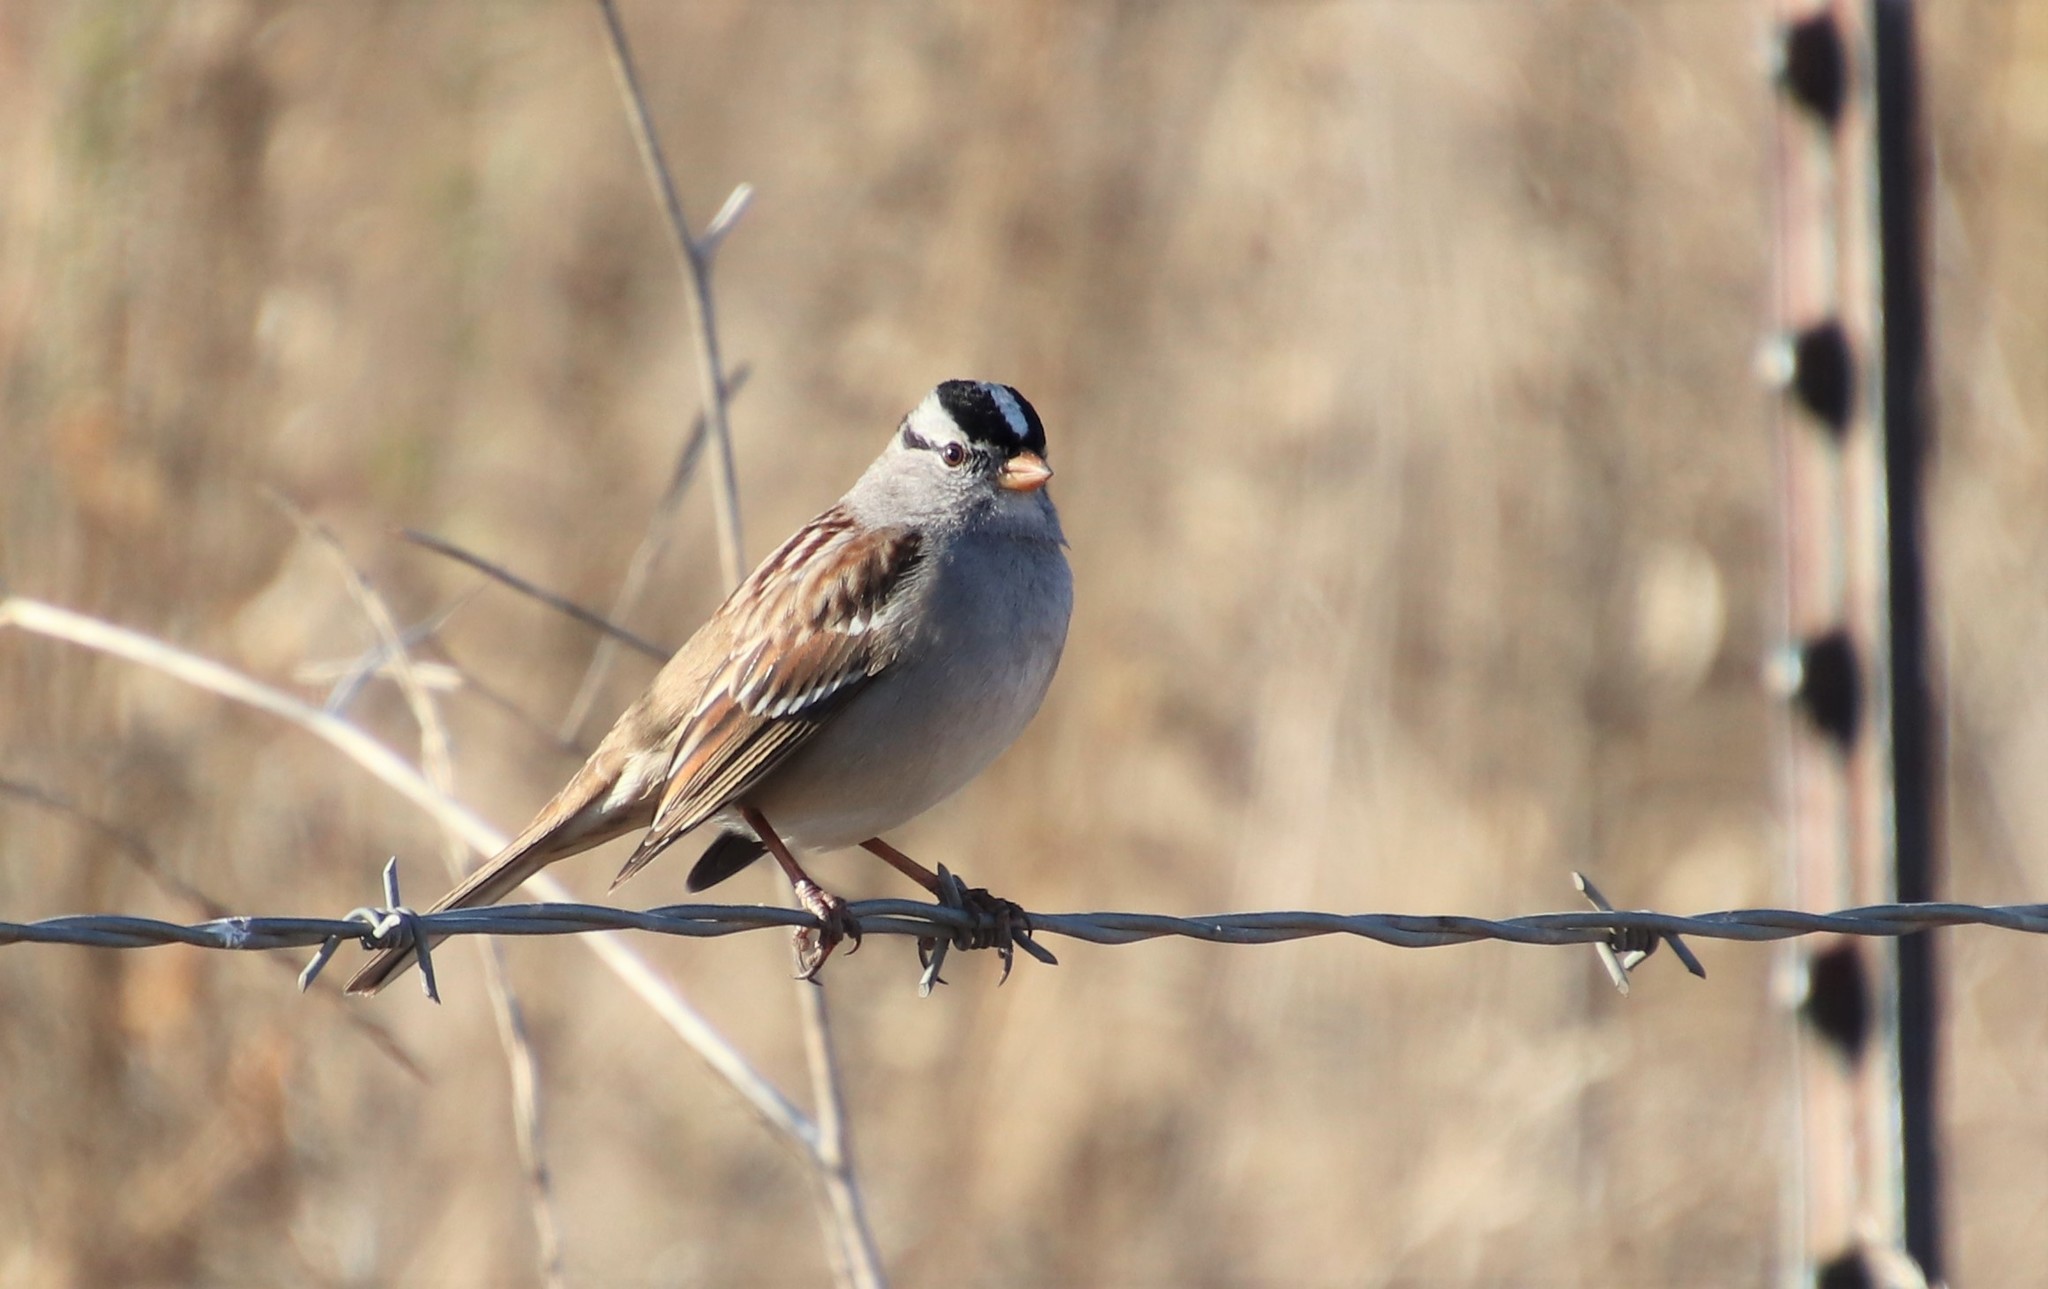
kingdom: Animalia
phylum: Chordata
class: Aves
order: Passeriformes
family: Passerellidae
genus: Zonotrichia
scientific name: Zonotrichia leucophrys
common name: White-crowned sparrow
